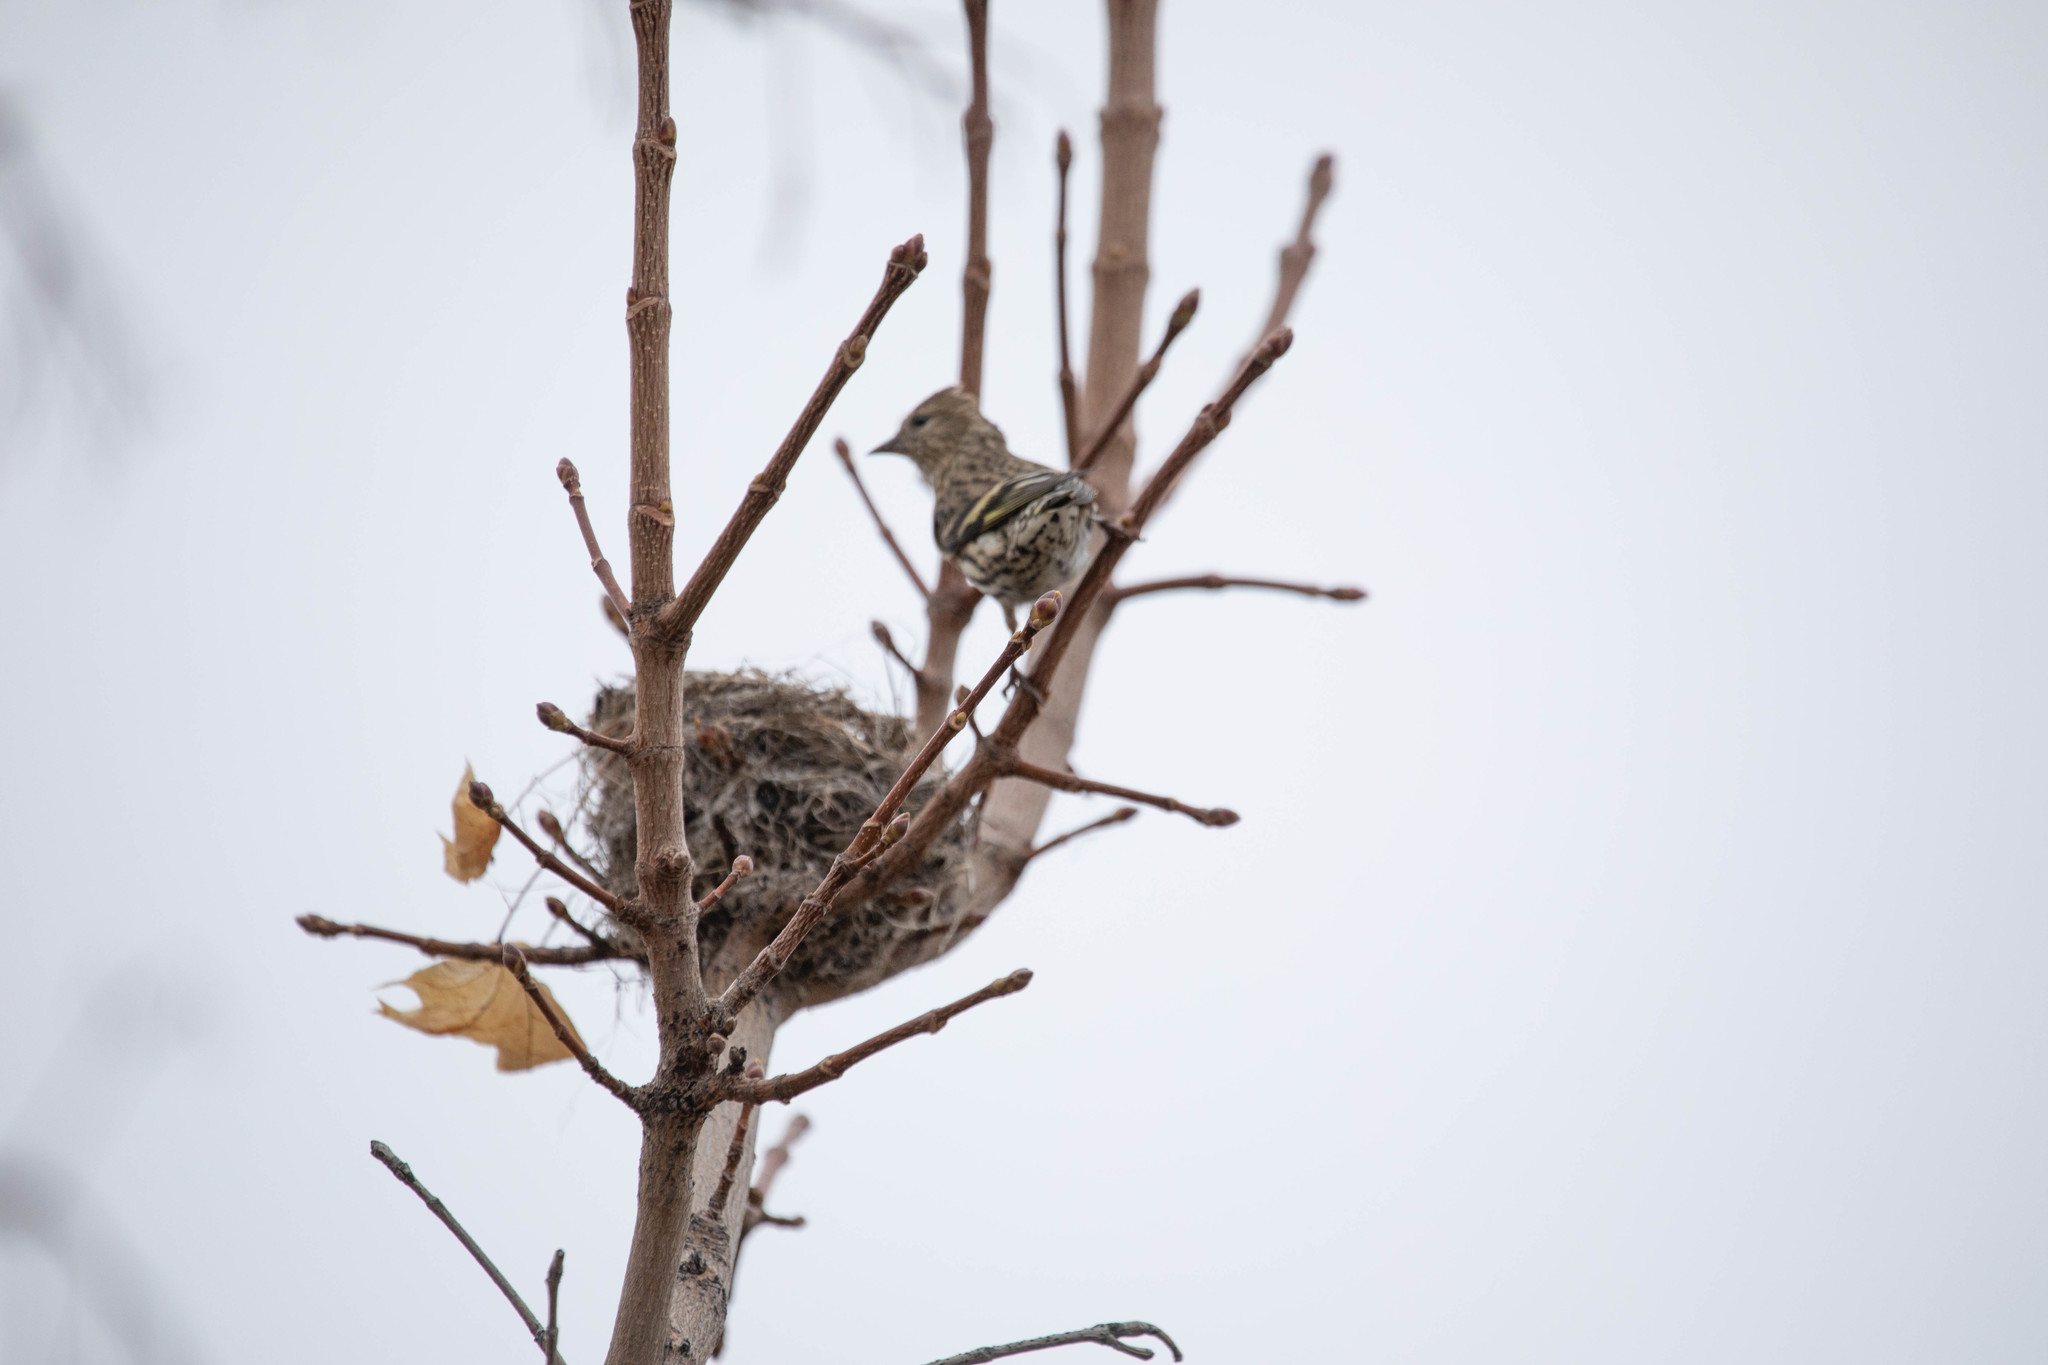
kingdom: Animalia
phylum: Chordata
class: Aves
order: Passeriformes
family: Fringillidae
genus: Spinus
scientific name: Spinus pinus
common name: Pine siskin
